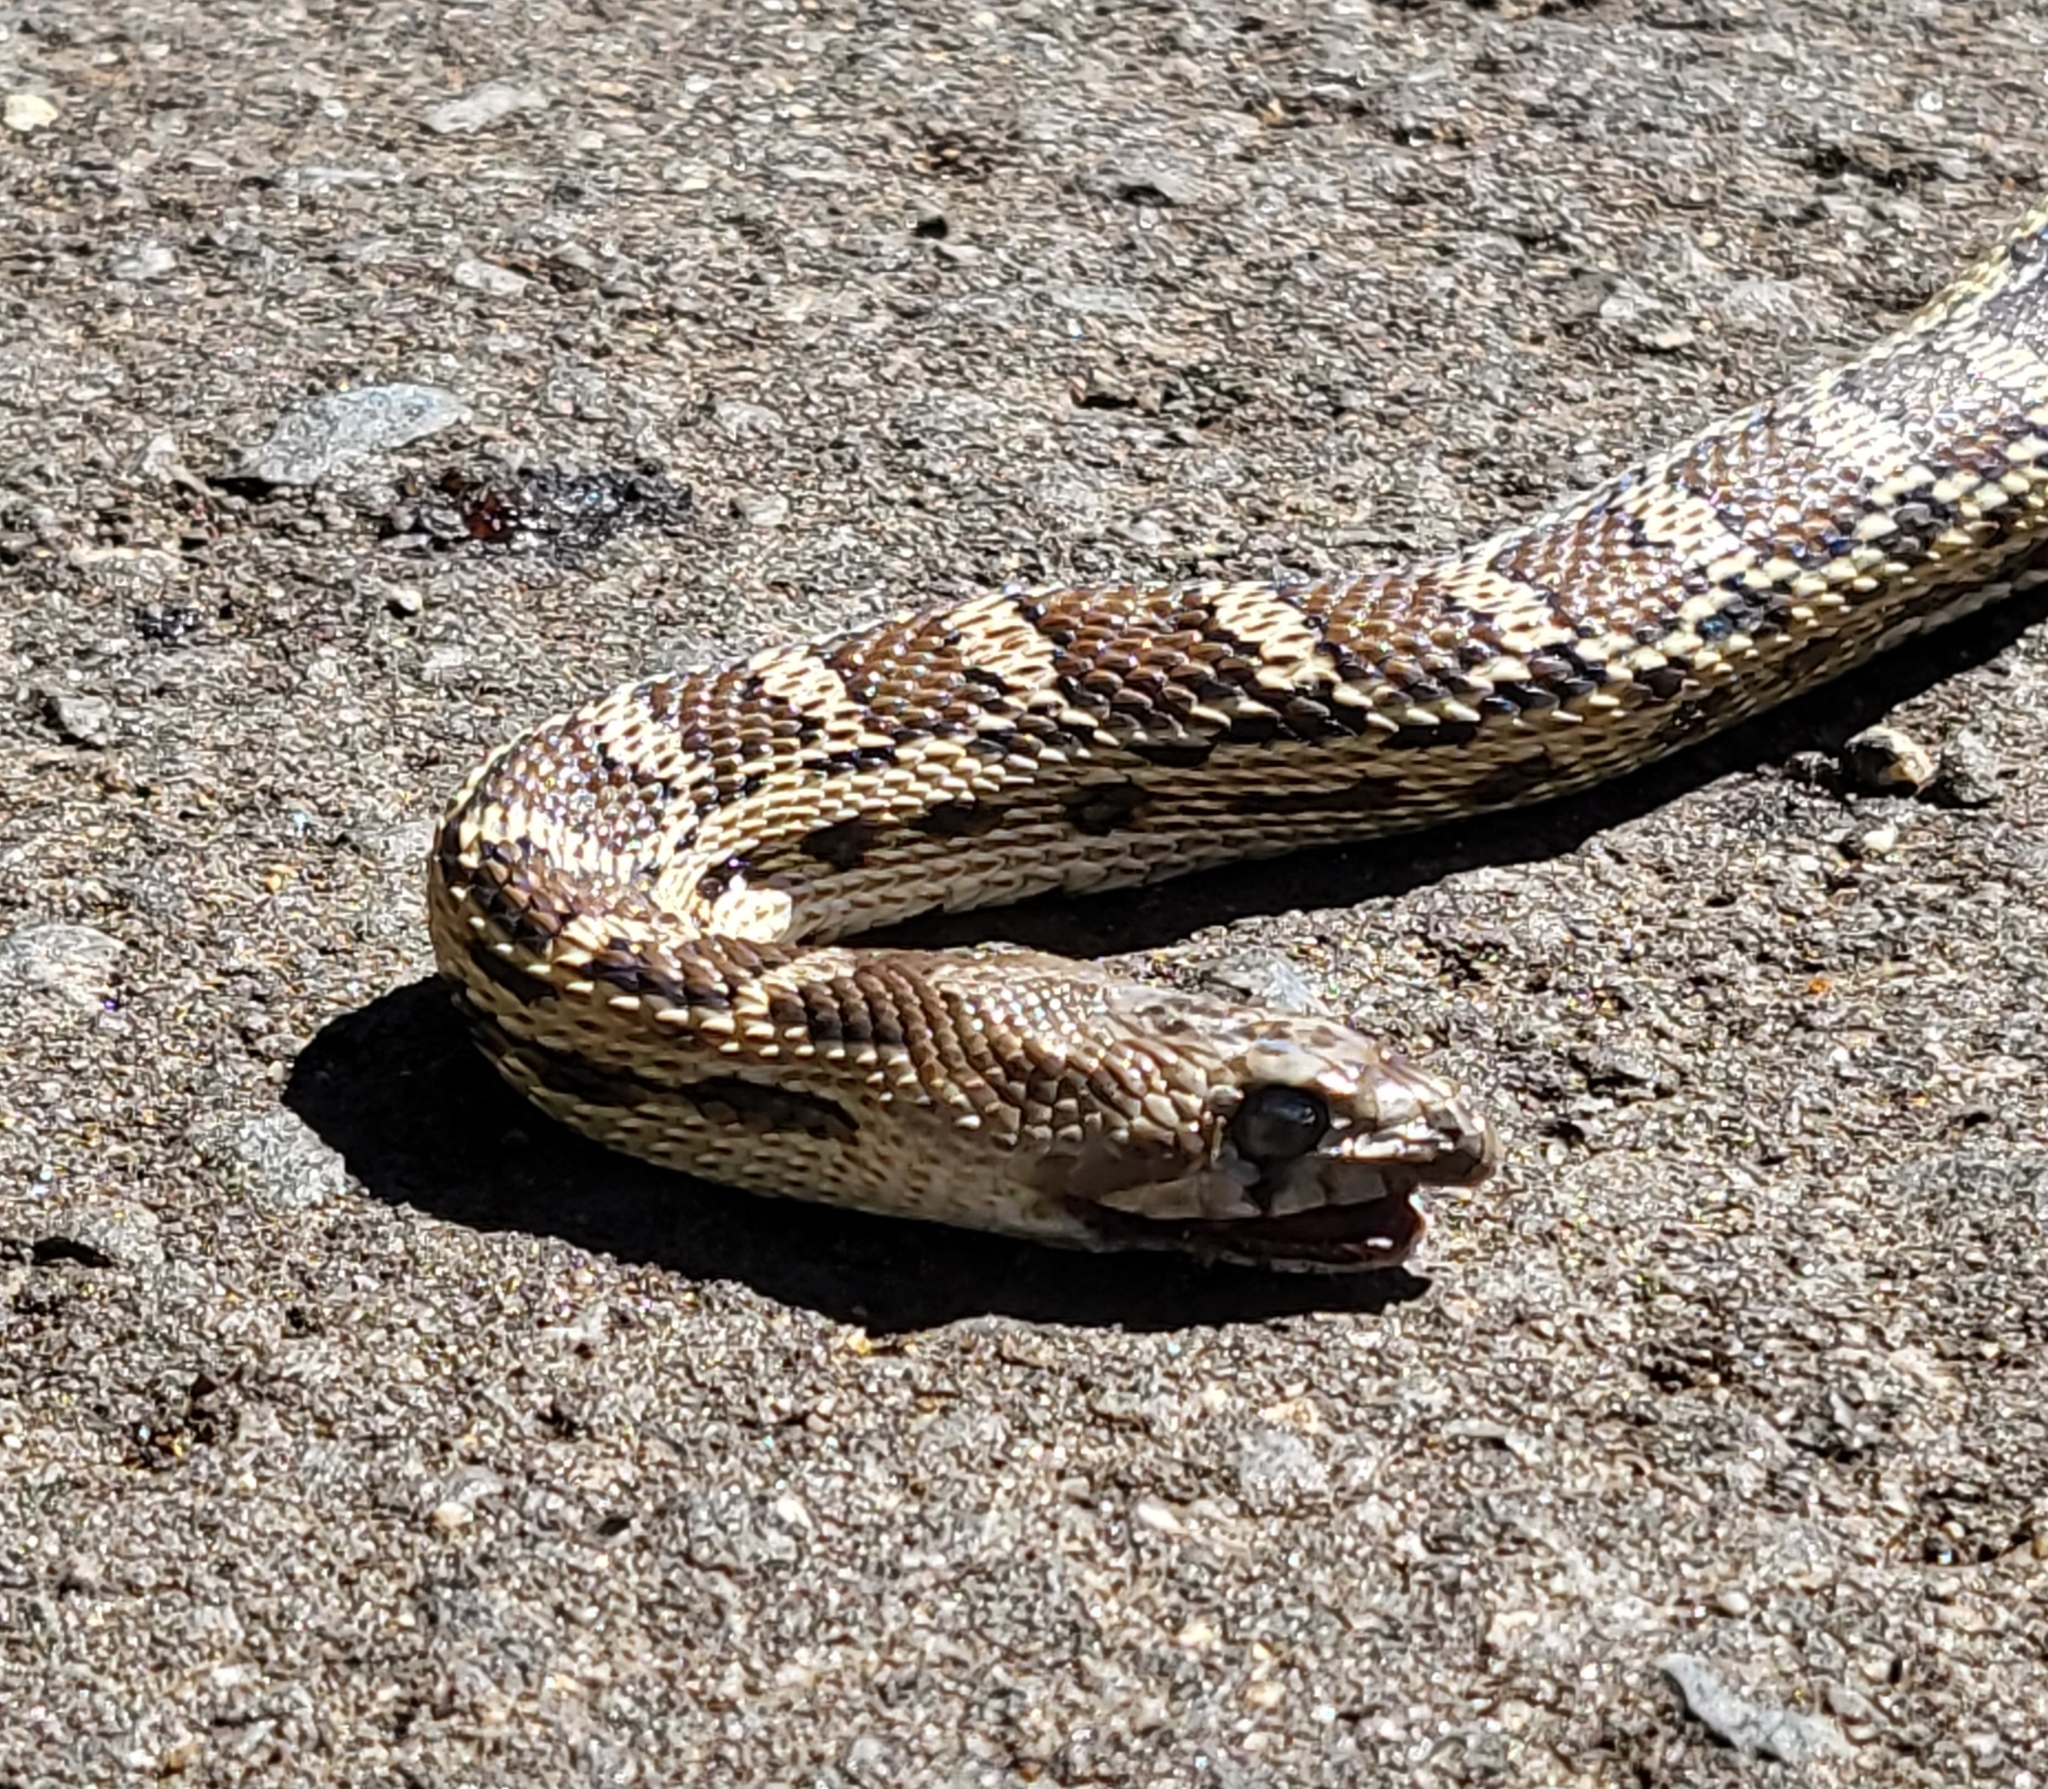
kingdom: Animalia
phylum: Chordata
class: Squamata
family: Colubridae
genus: Pituophis
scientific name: Pituophis catenifer
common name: Gopher snake
